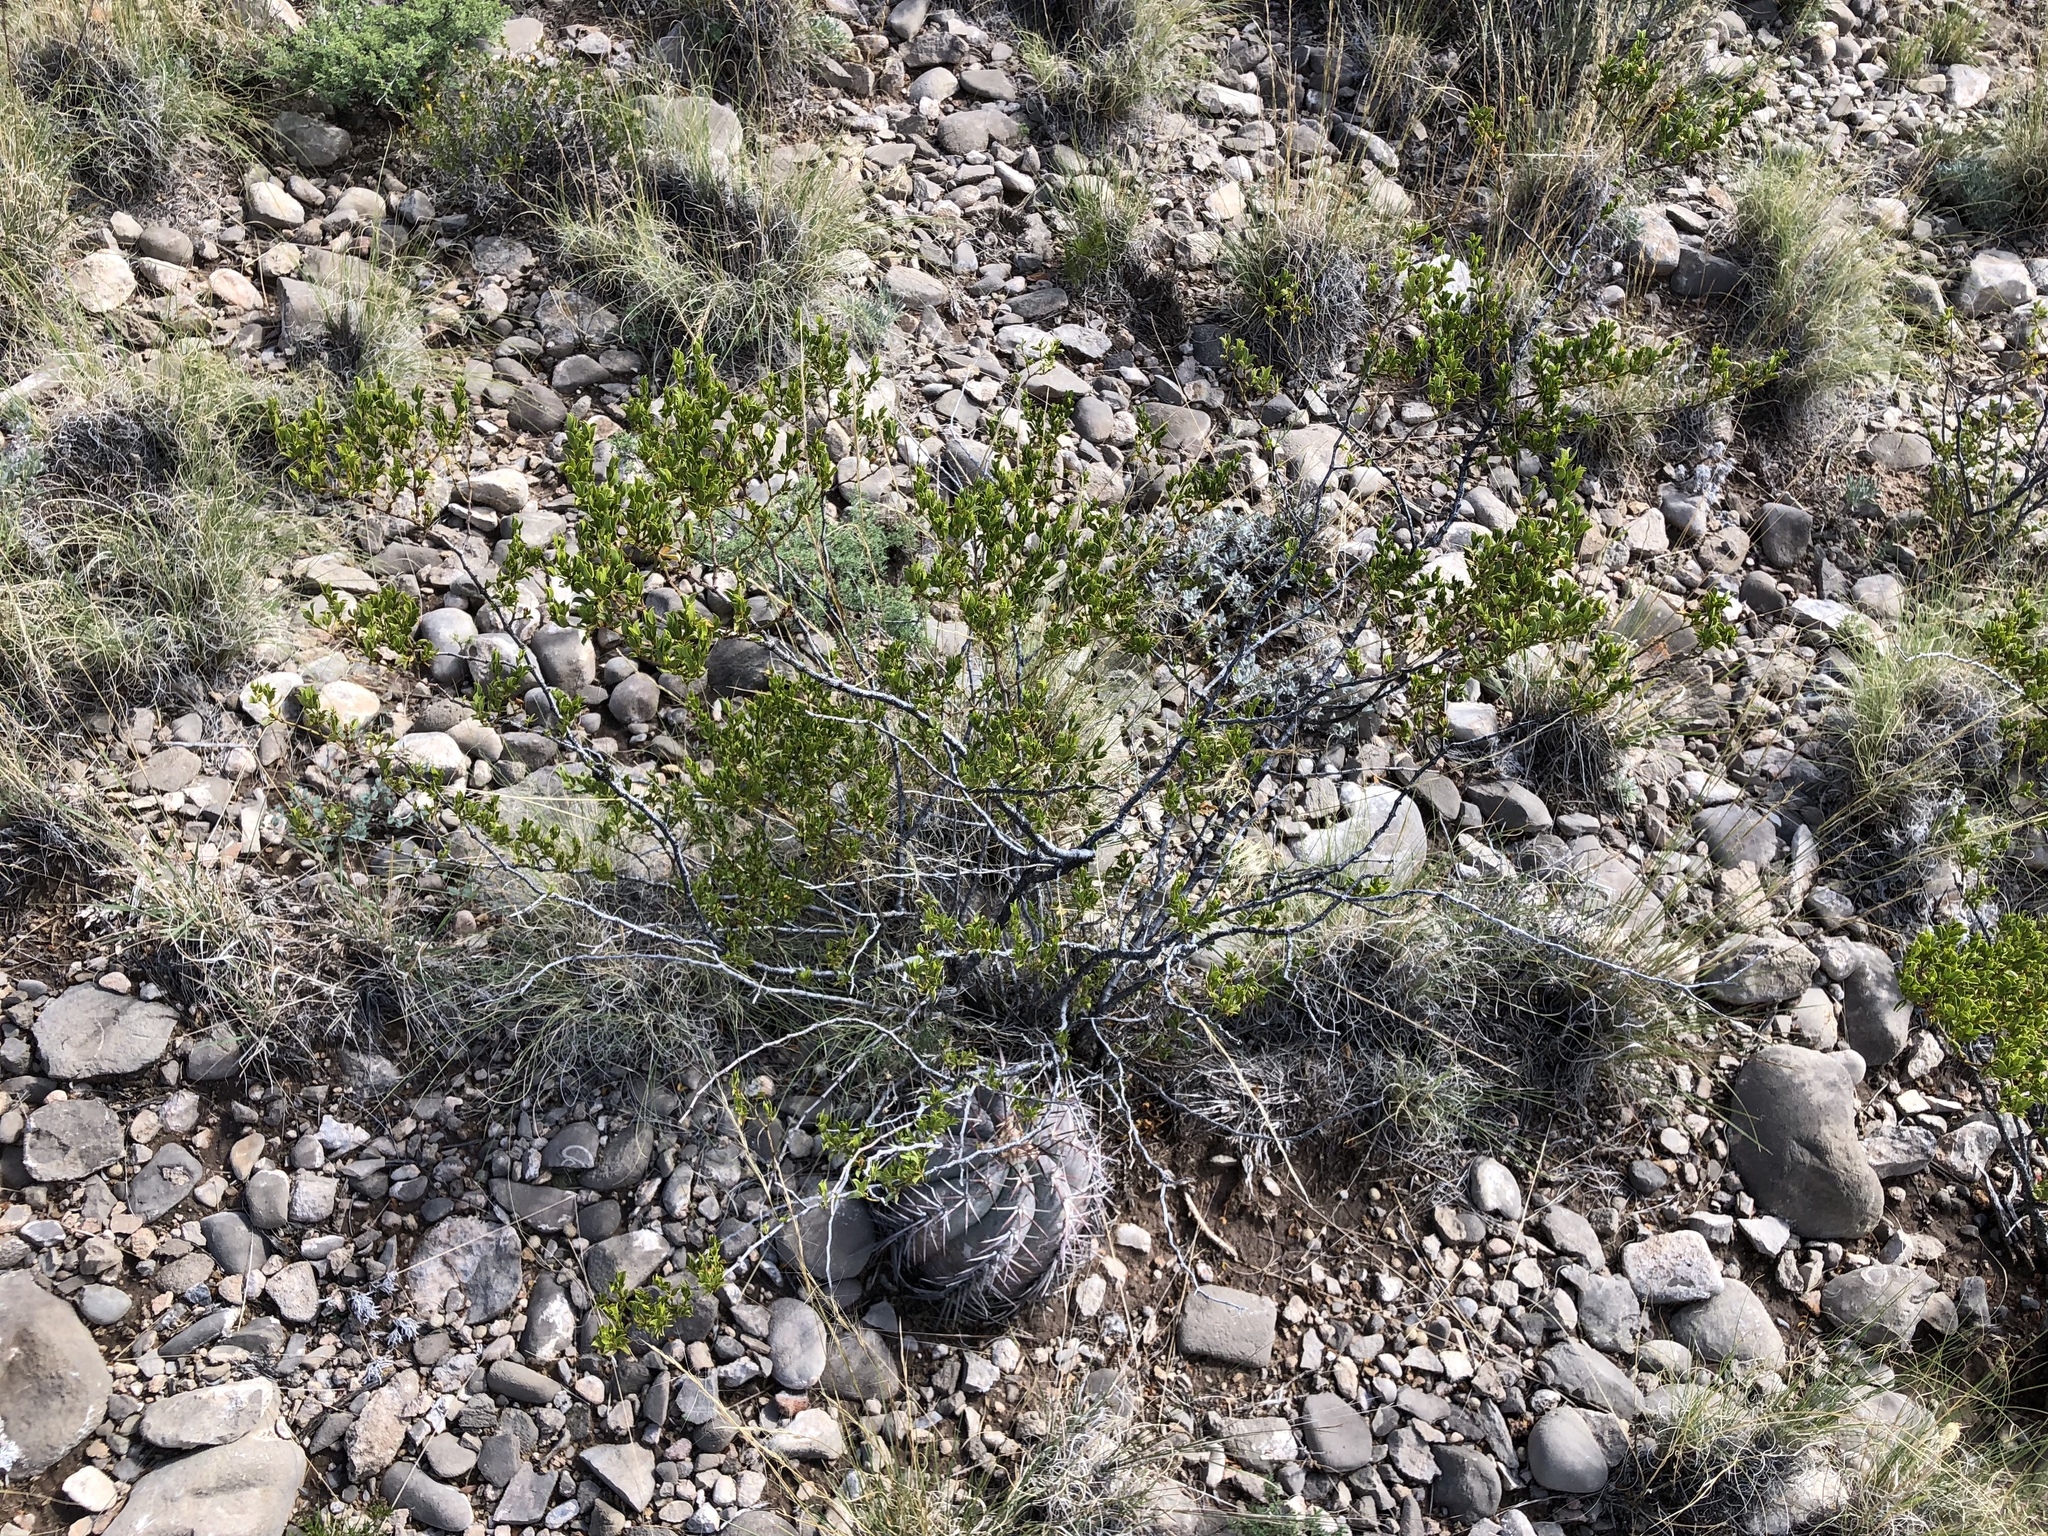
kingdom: Plantae
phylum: Tracheophyta
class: Magnoliopsida
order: Zygophyllales
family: Zygophyllaceae
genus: Larrea
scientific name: Larrea tridentata
